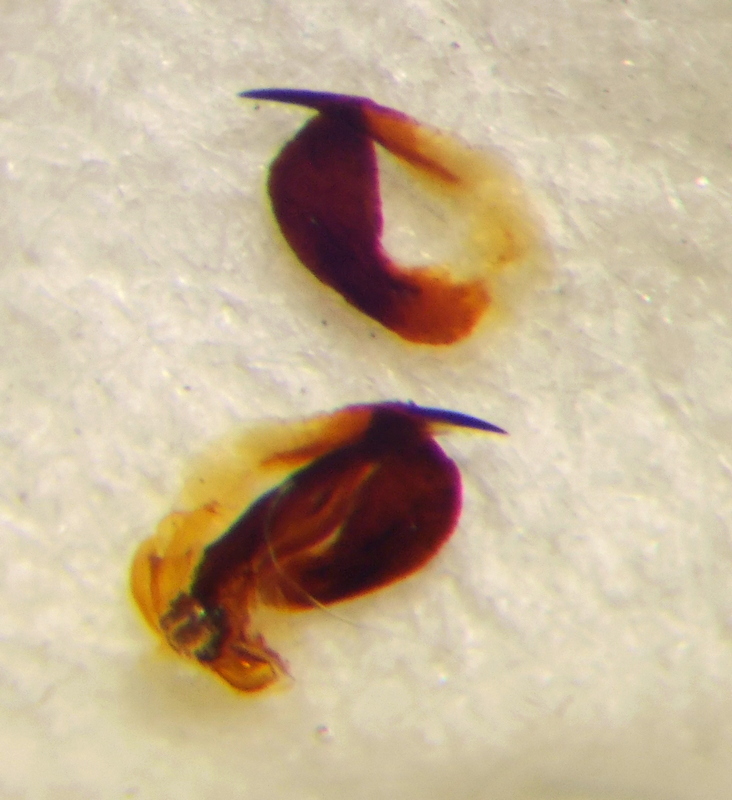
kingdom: Animalia
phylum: Arthropoda
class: Insecta
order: Hemiptera
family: Scutelleridae
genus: Irochrotus
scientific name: Irochrotus lanatus
